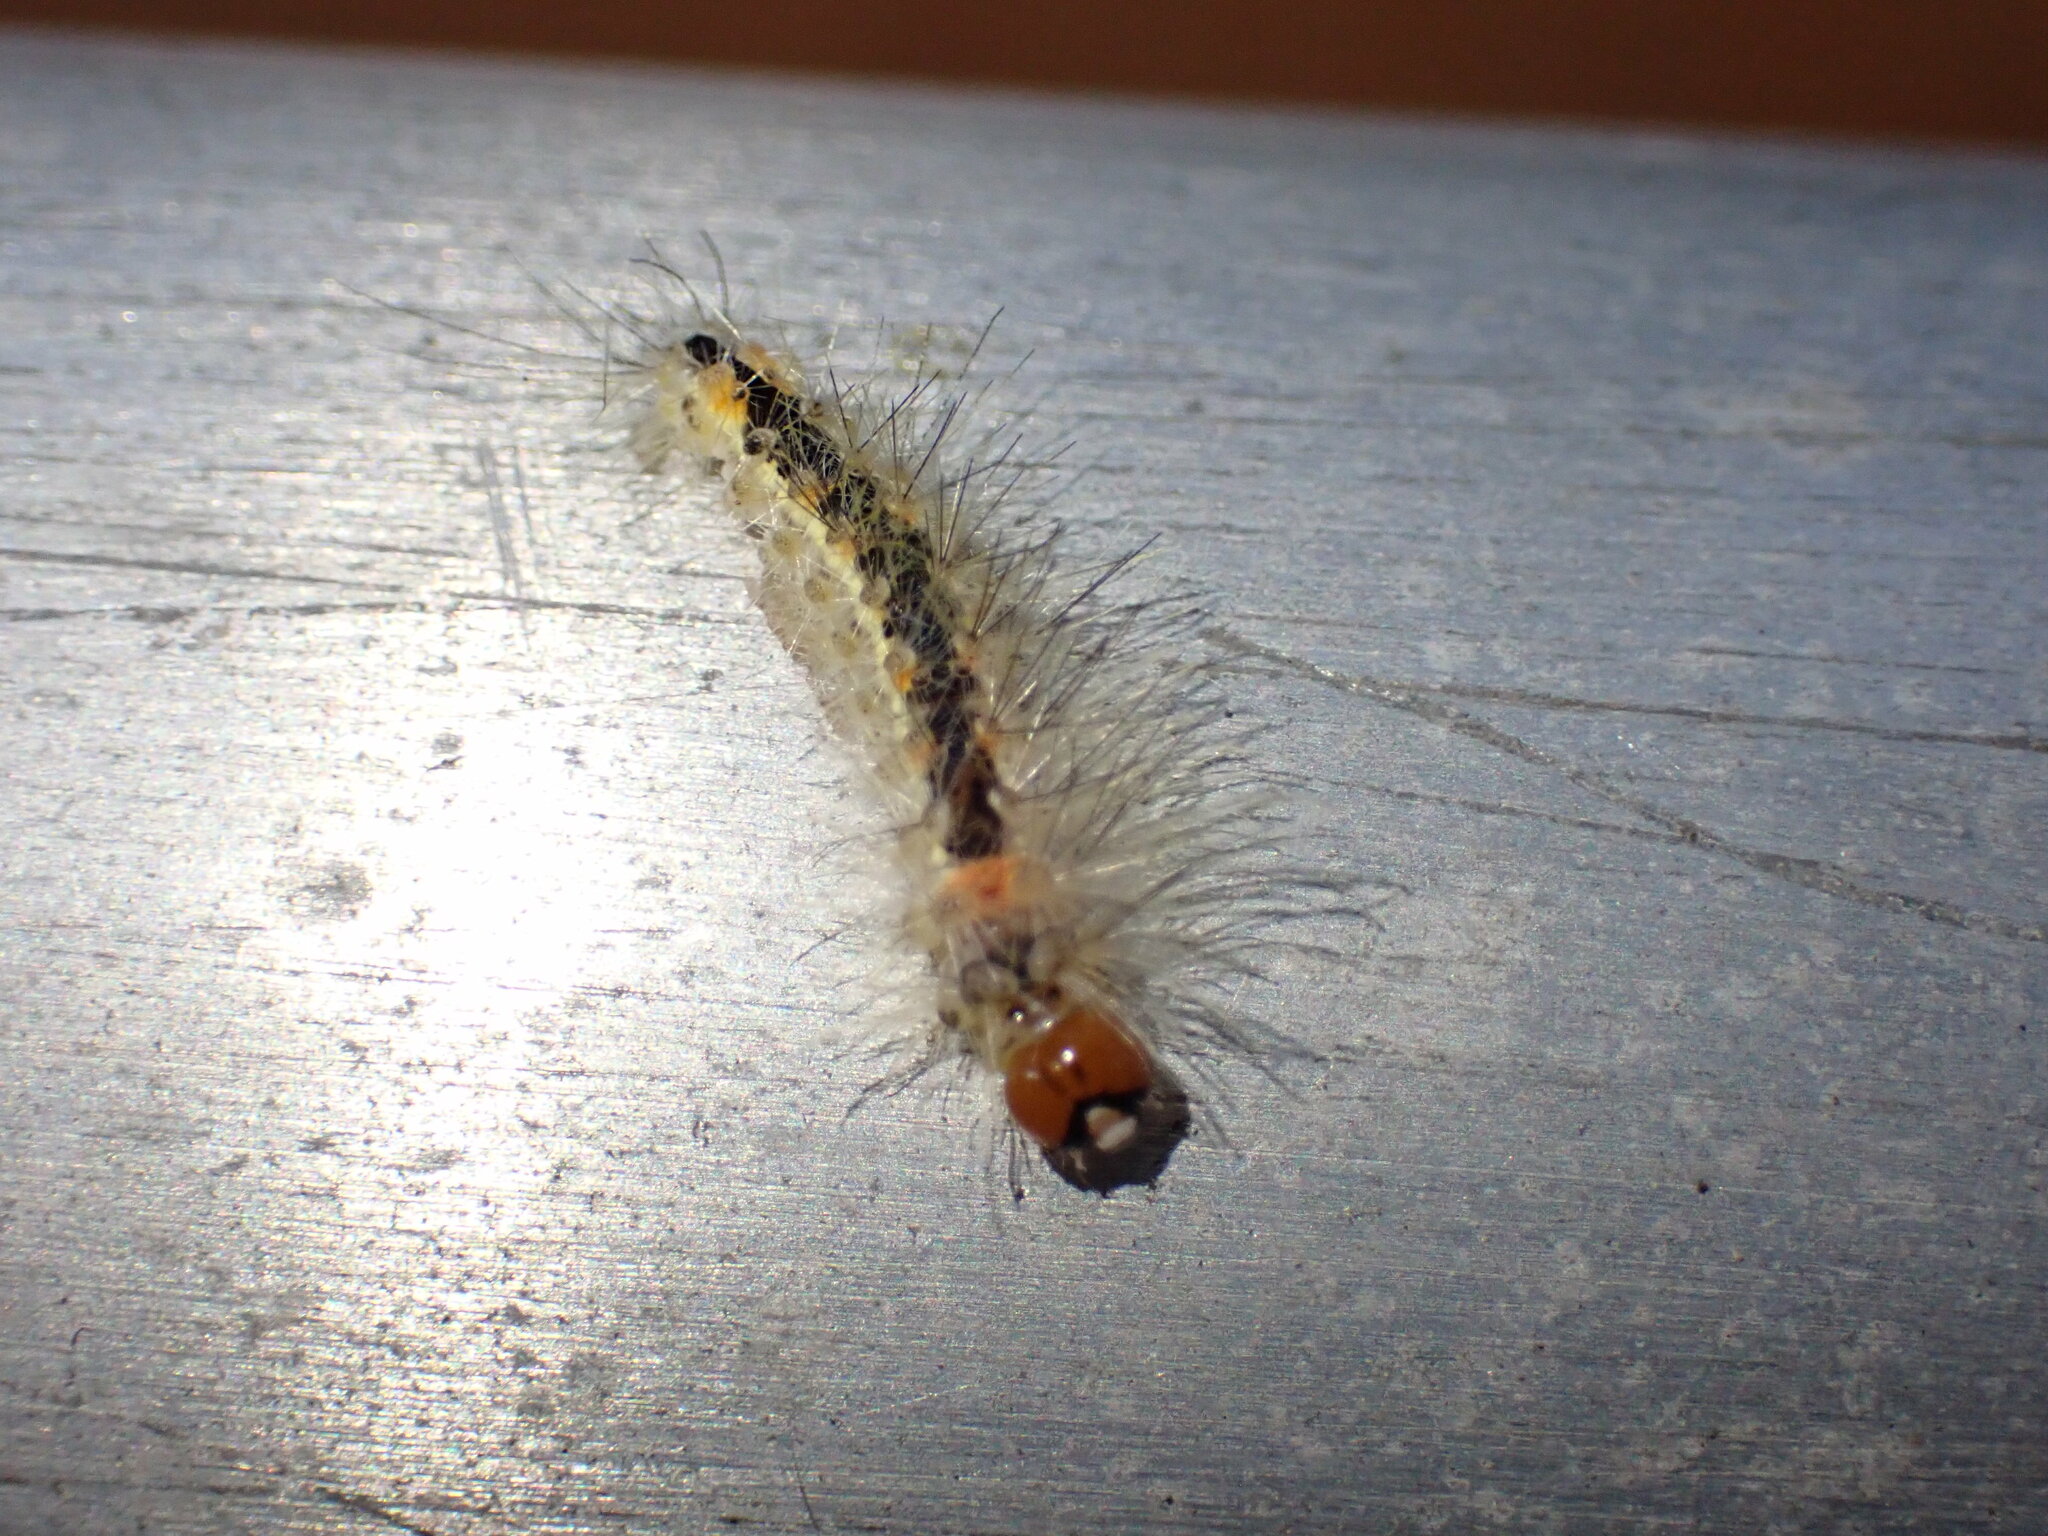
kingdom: Animalia
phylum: Arthropoda
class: Insecta
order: Lepidoptera
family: Erebidae
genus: Lymire
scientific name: Lymire edwardsii
